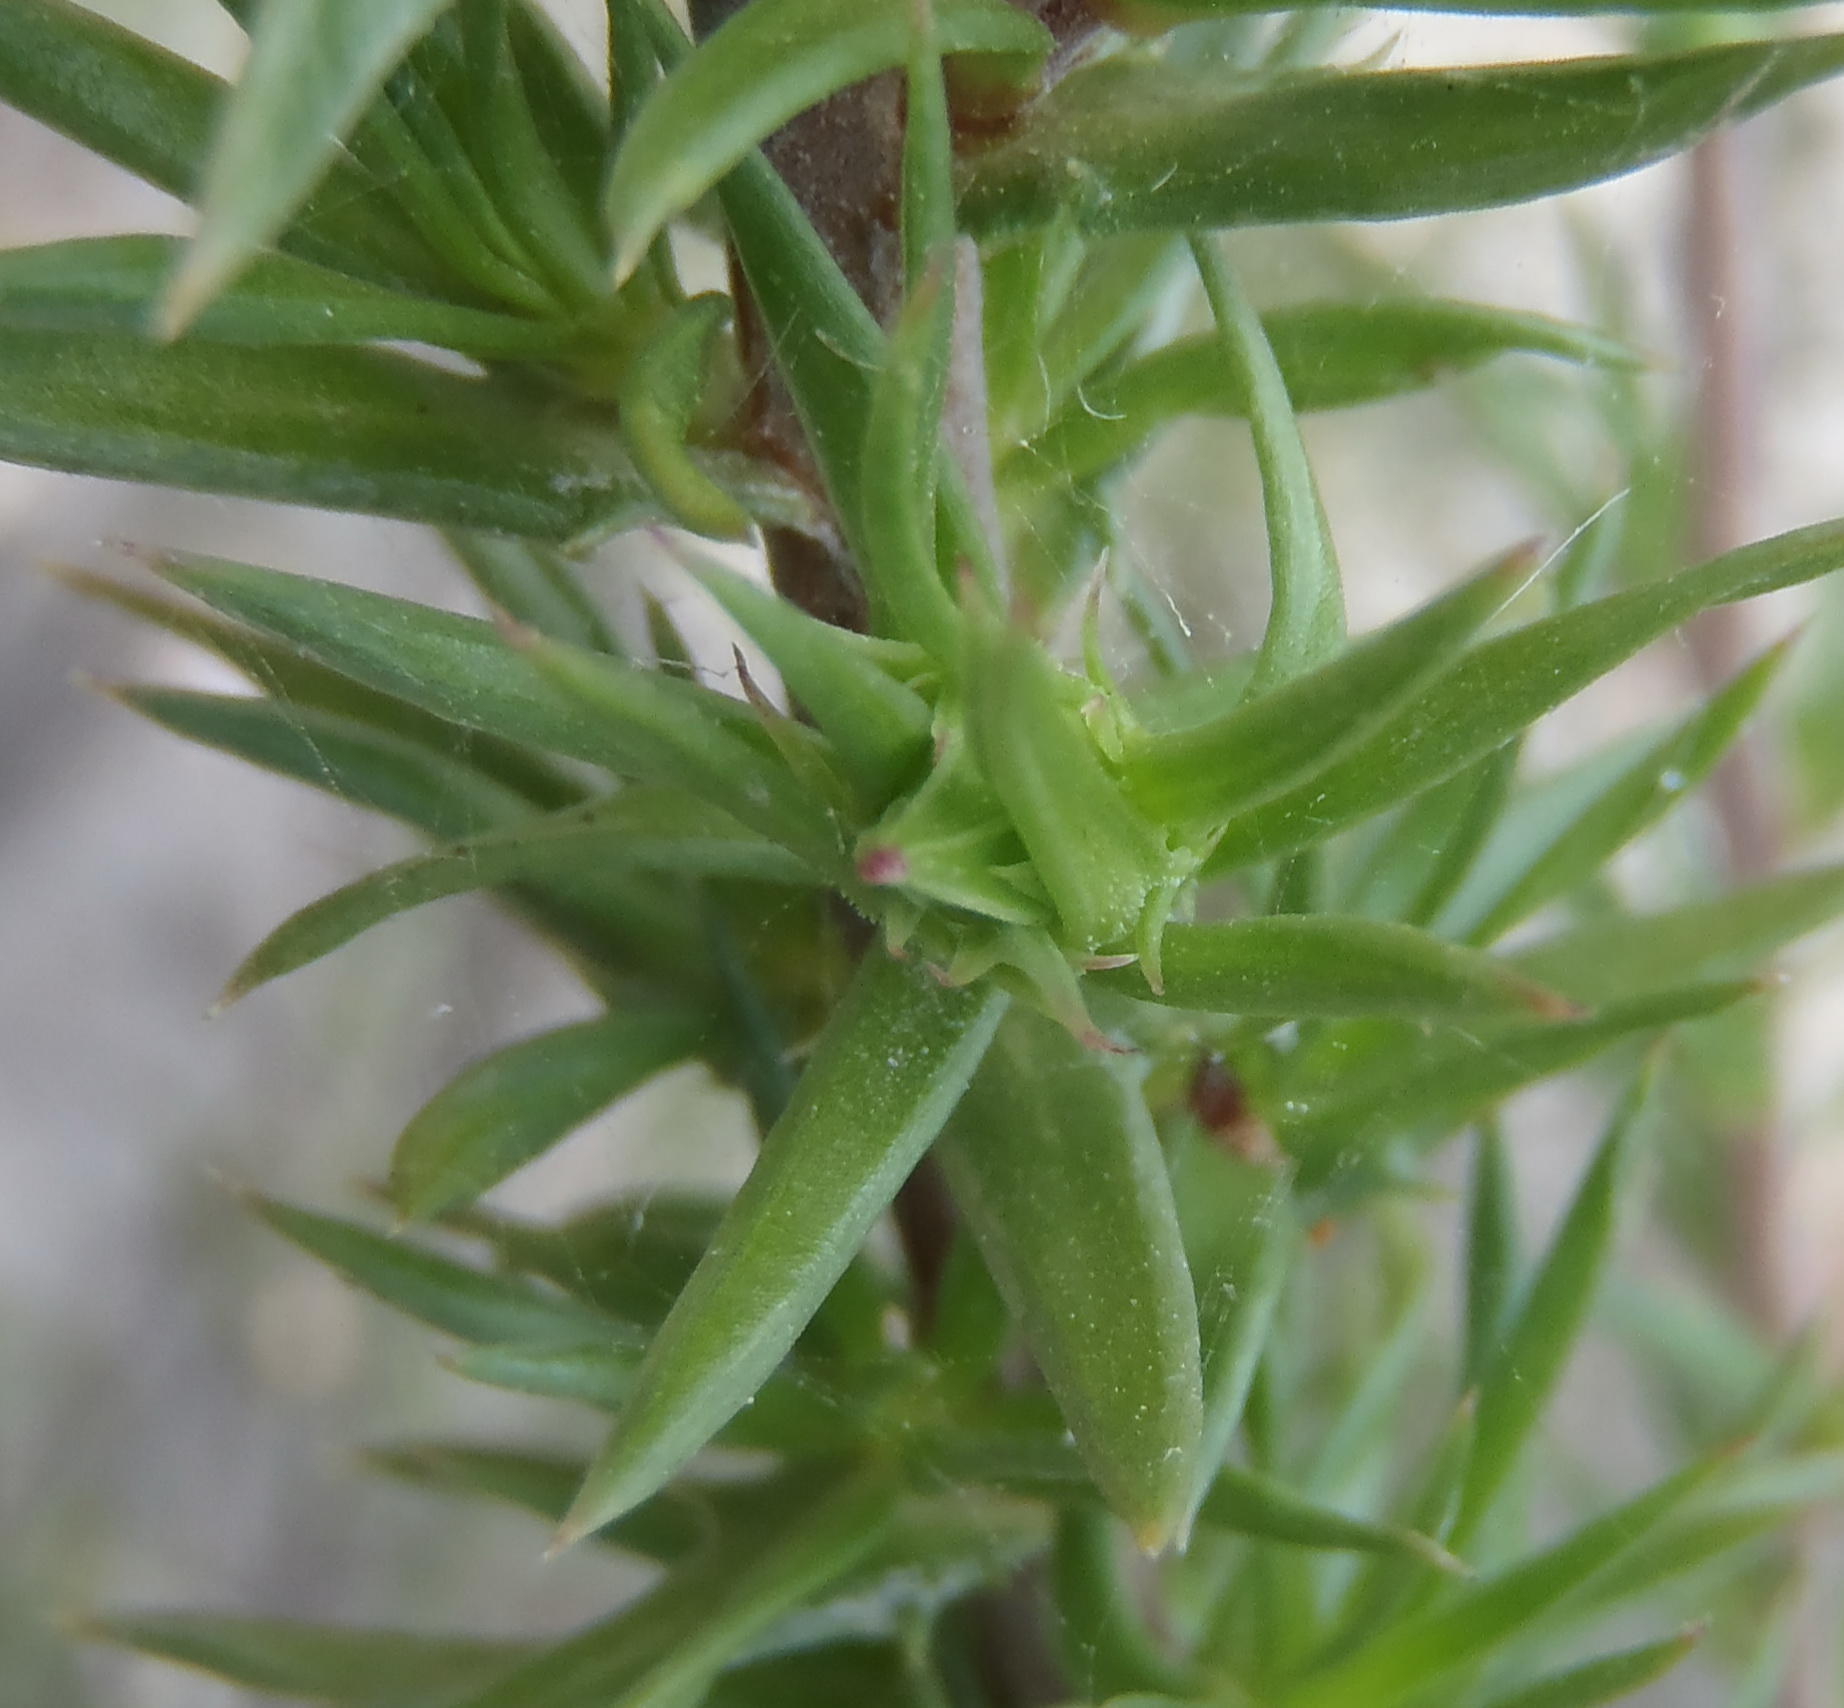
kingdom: Plantae
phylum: Tracheophyta
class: Magnoliopsida
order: Asterales
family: Campanulaceae
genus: Prismatocarpus
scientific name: Prismatocarpus cliffortioides
